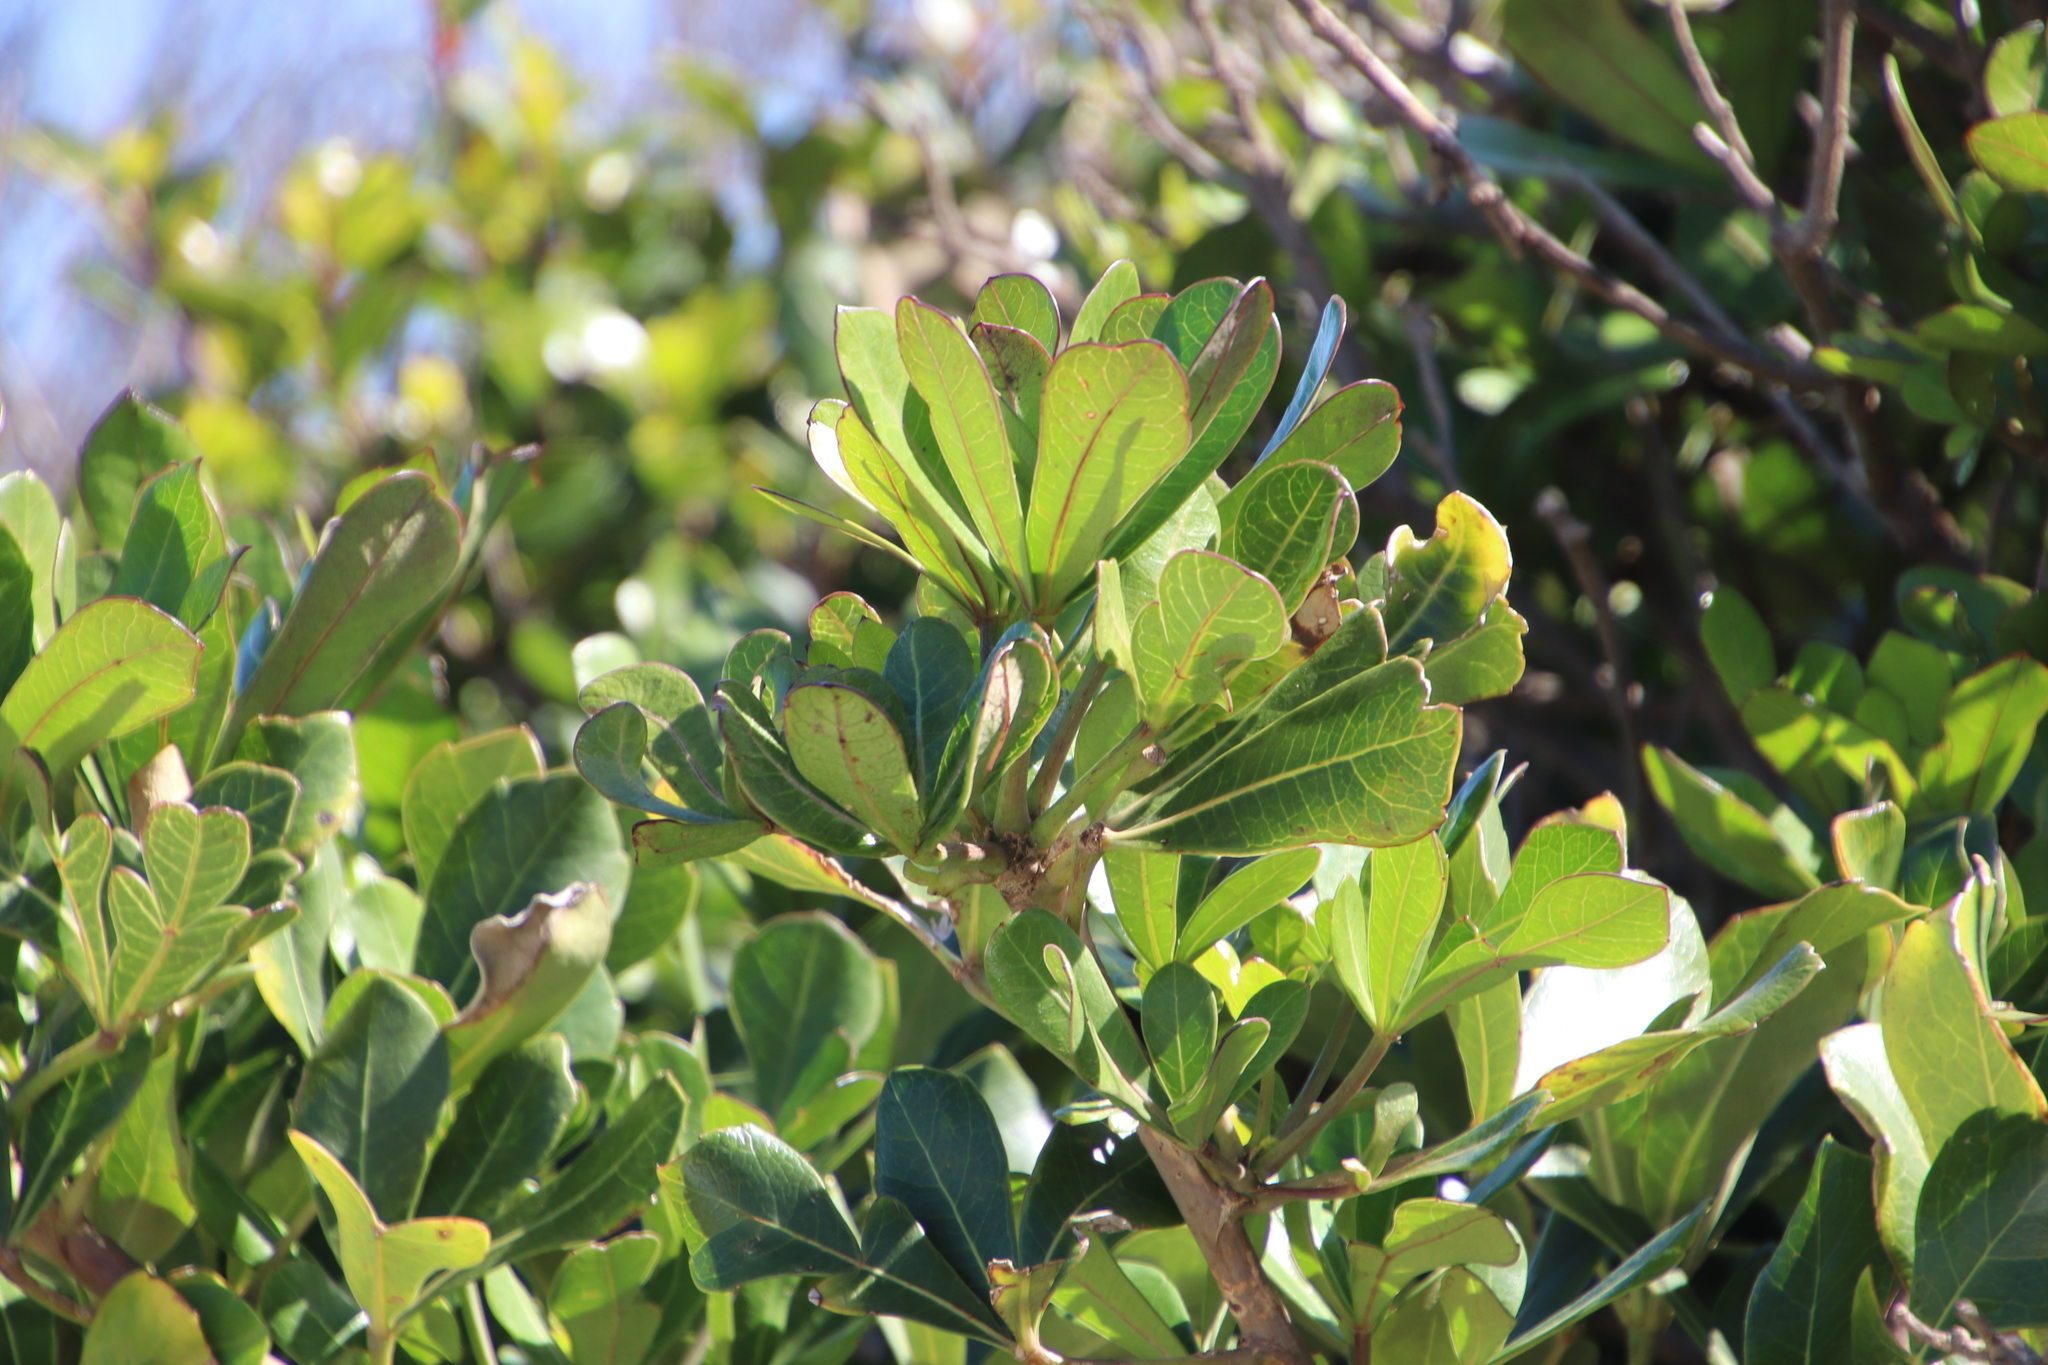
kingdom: Plantae
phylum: Tracheophyta
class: Magnoliopsida
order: Apiales
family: Araliaceae
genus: Cussonia
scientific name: Cussonia thyrsiflora
